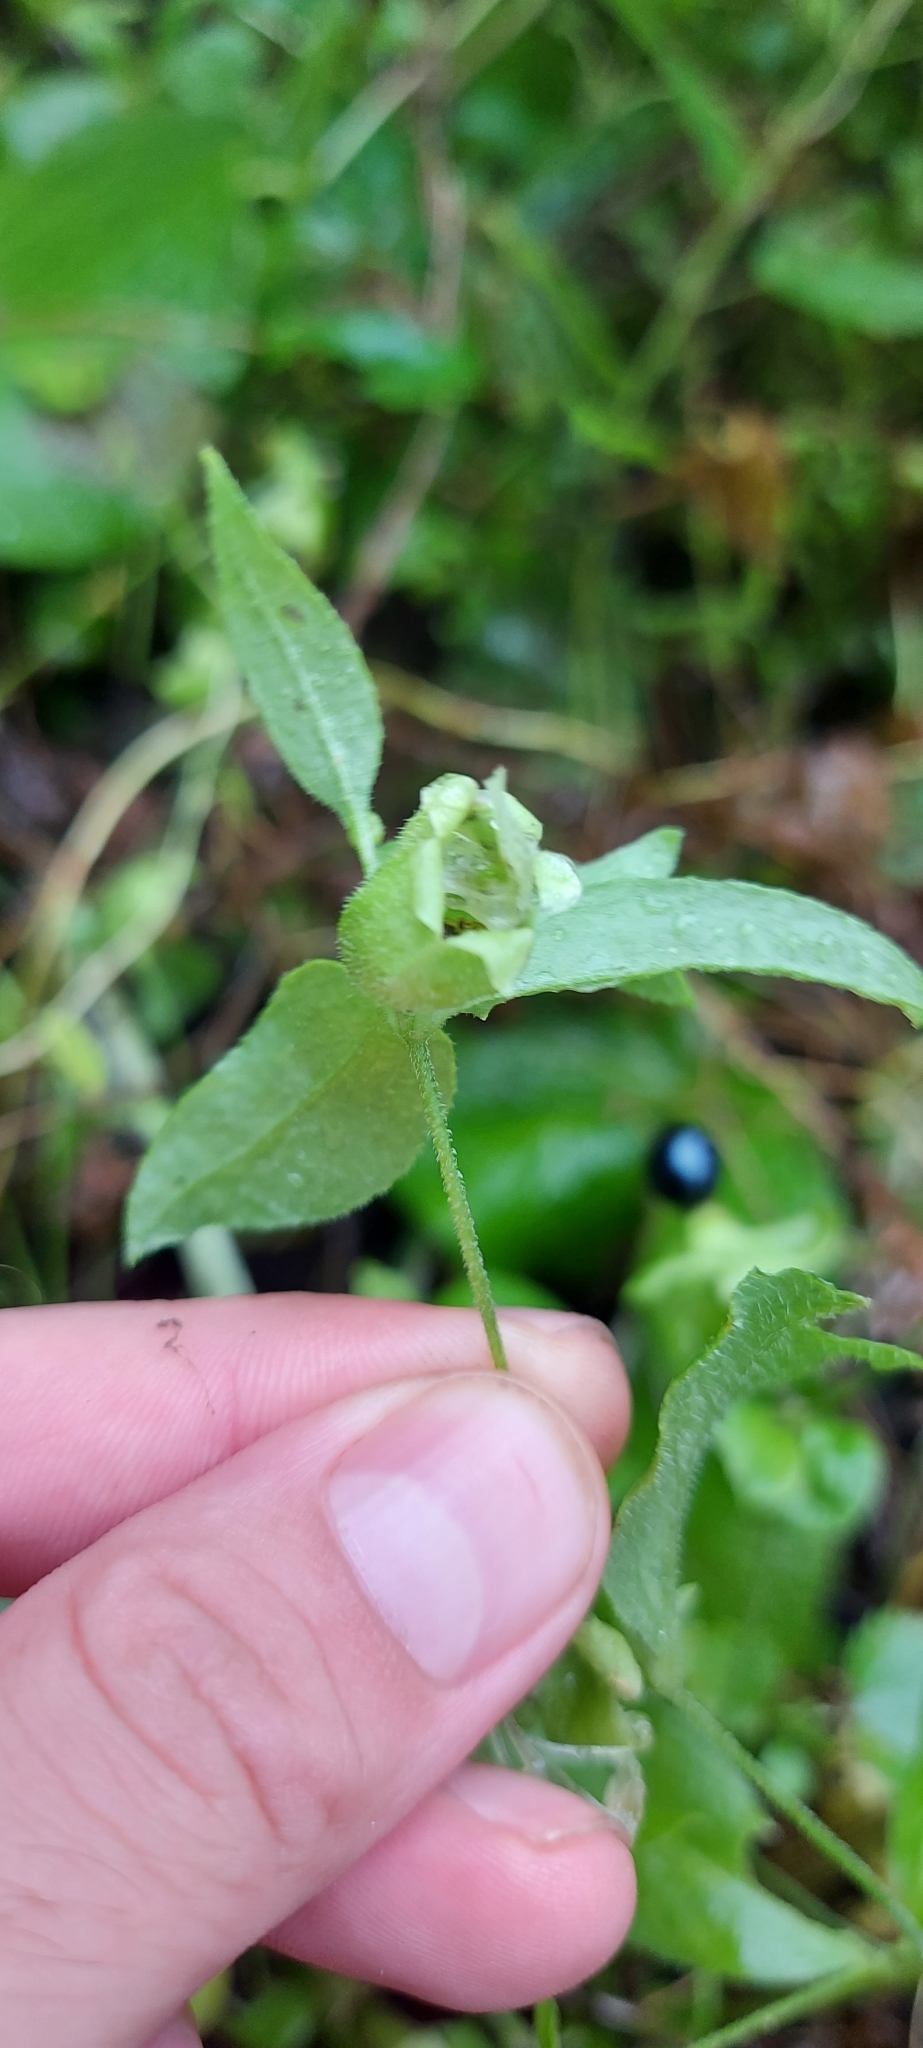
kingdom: Plantae
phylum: Tracheophyta
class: Magnoliopsida
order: Caryophyllales
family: Caryophyllaceae
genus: Silene
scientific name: Silene baccifera
